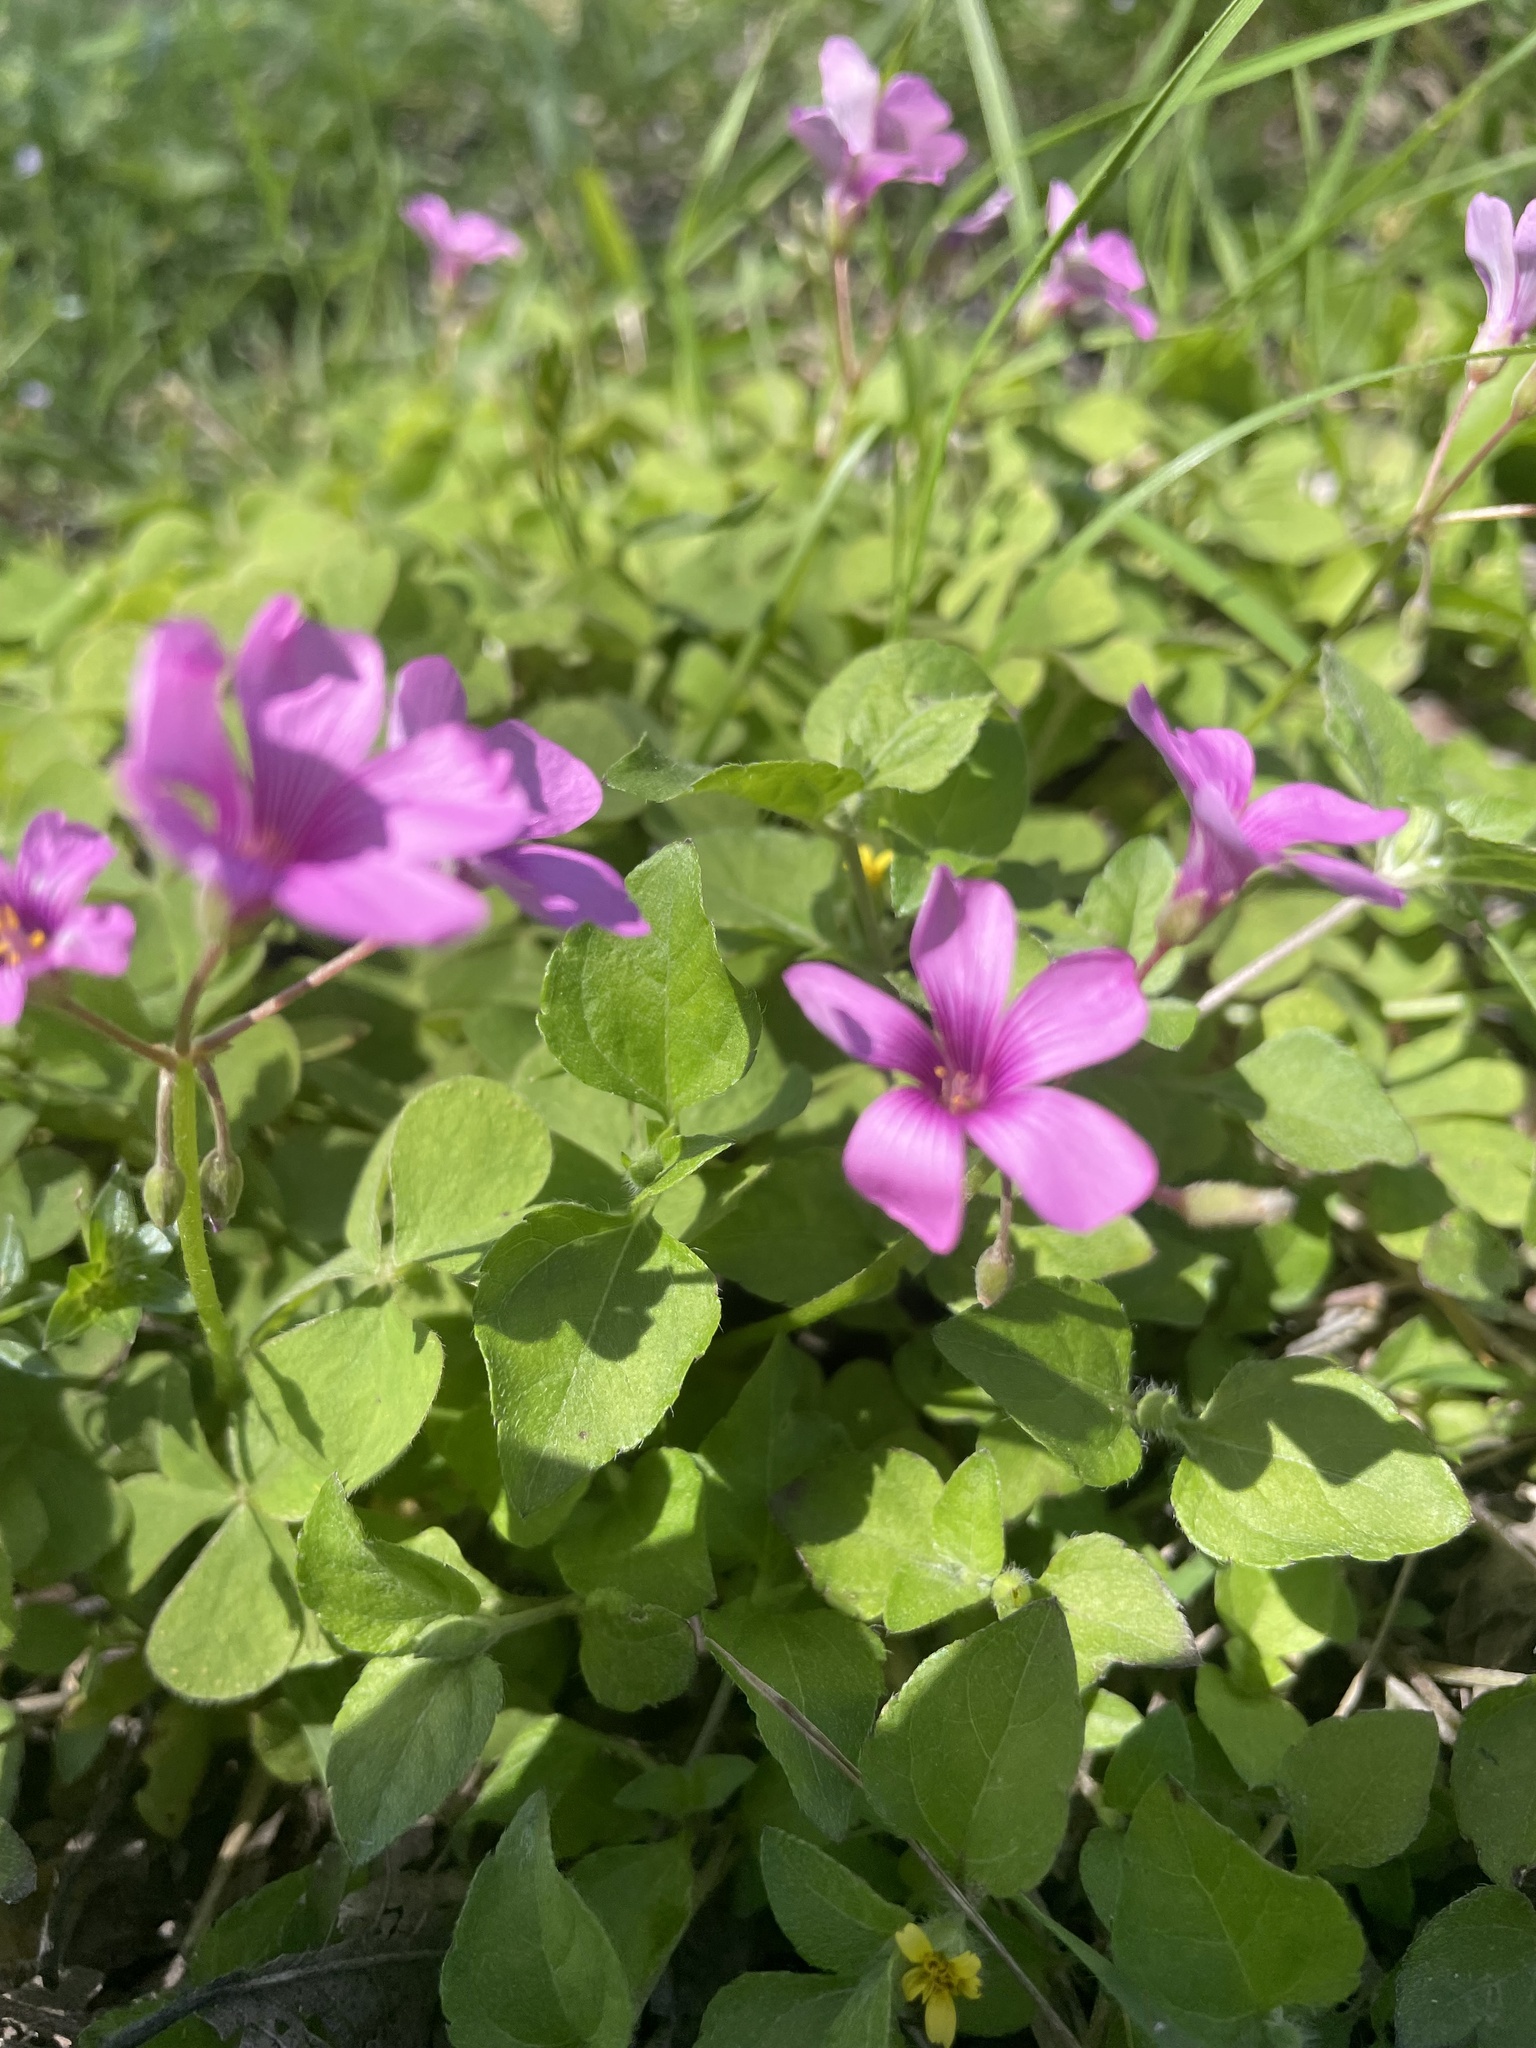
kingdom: Plantae
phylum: Tracheophyta
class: Magnoliopsida
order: Oxalidales
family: Oxalidaceae
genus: Oxalis
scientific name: Oxalis articulata
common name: Pink-sorrel
